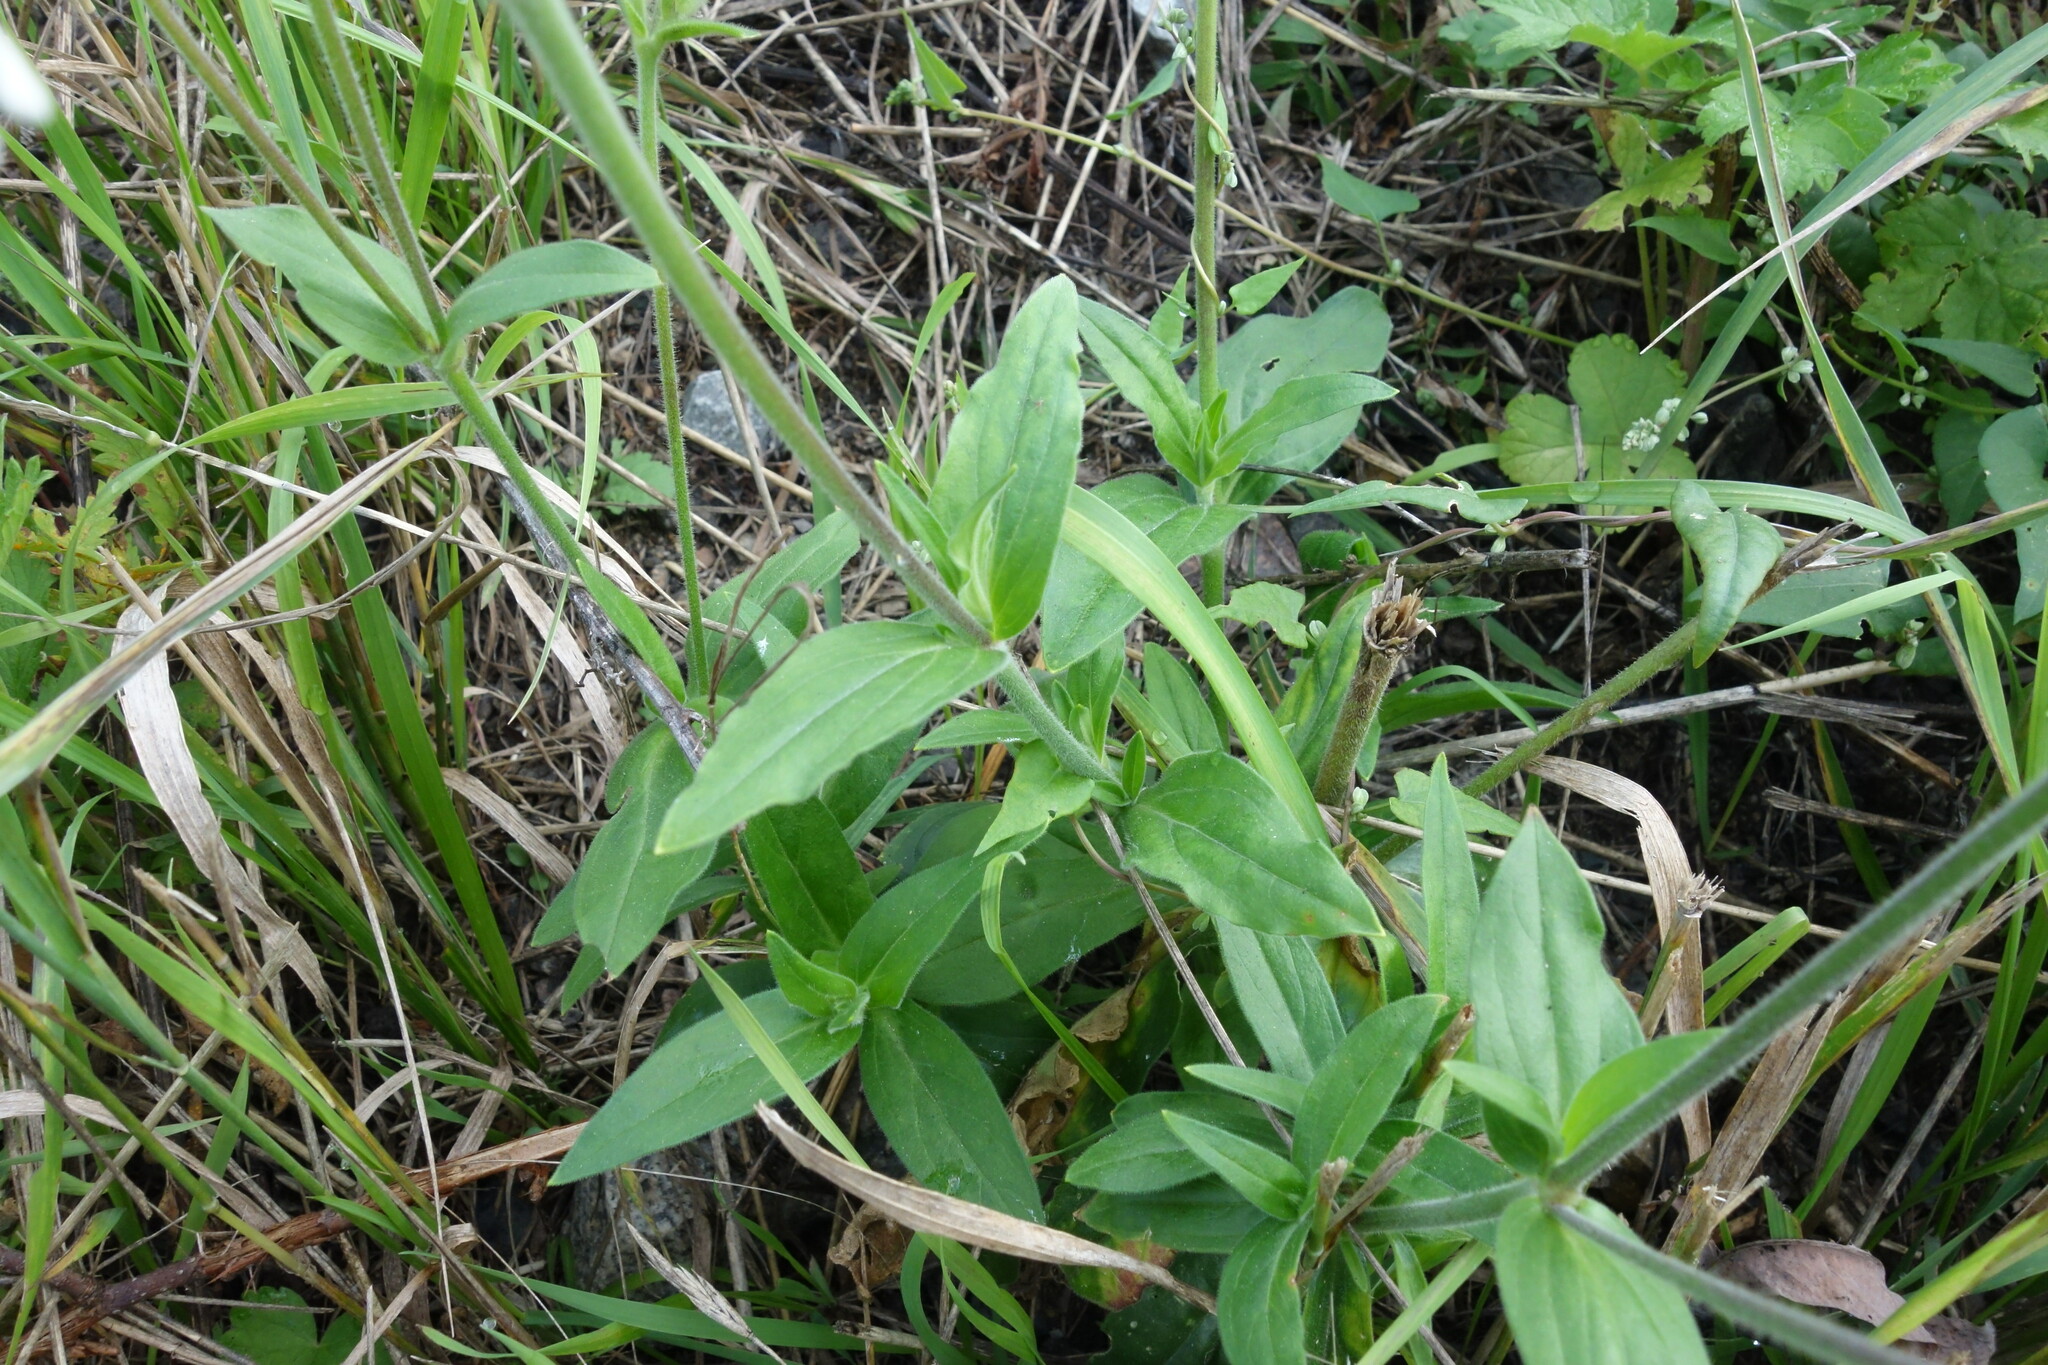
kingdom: Plantae
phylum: Tracheophyta
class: Magnoliopsida
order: Caryophyllales
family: Caryophyllaceae
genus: Silene
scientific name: Silene latifolia
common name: White campion
